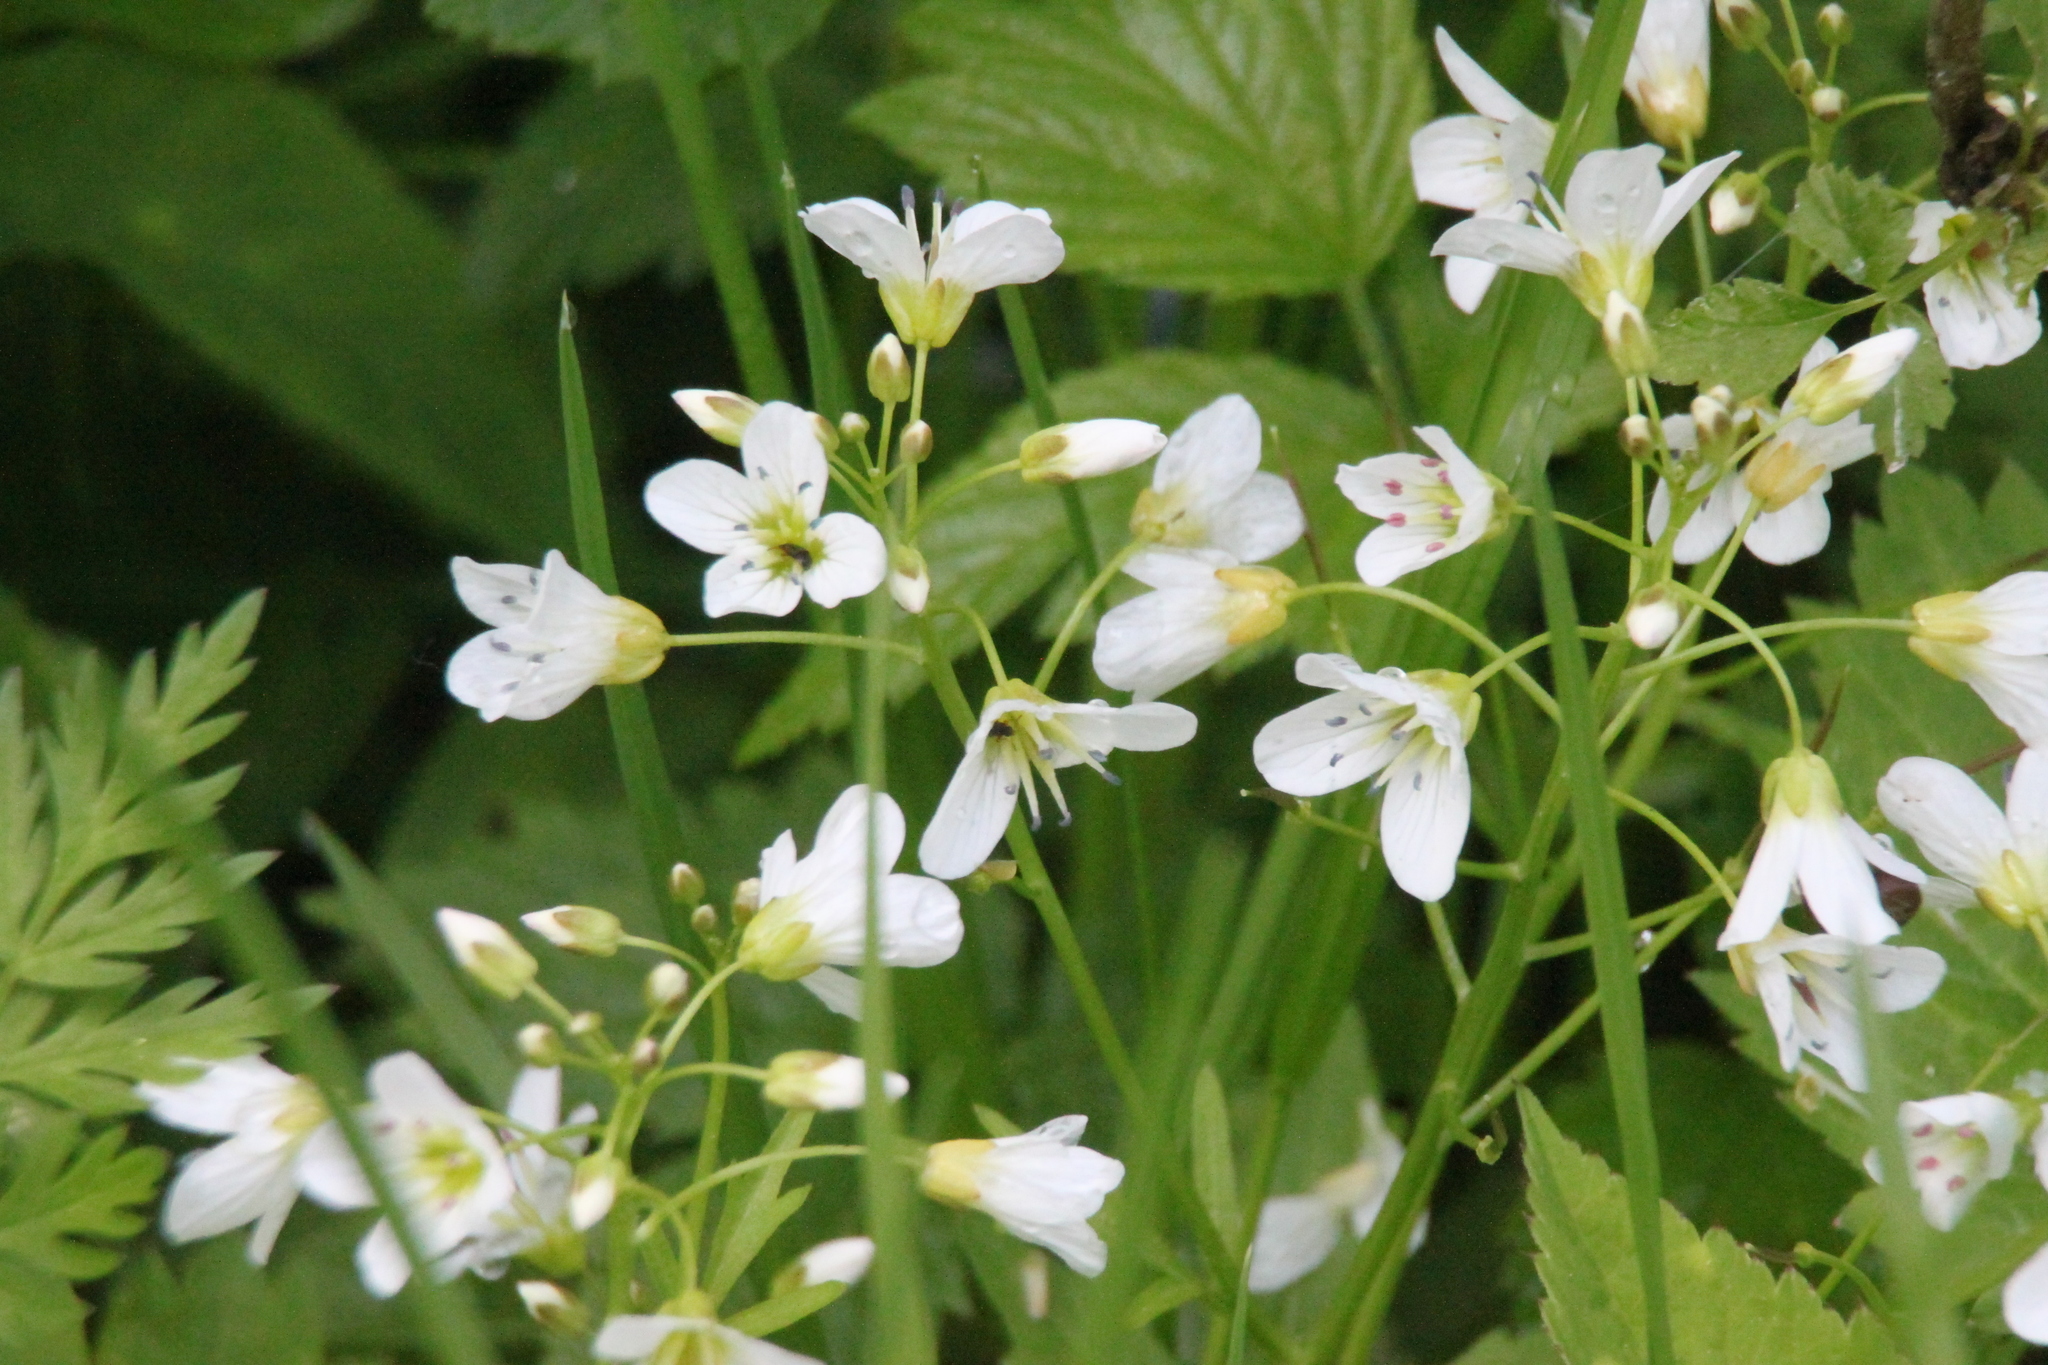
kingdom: Plantae
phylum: Tracheophyta
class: Magnoliopsida
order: Brassicales
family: Brassicaceae
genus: Cardamine
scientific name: Cardamine amara
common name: Large bitter-cress
